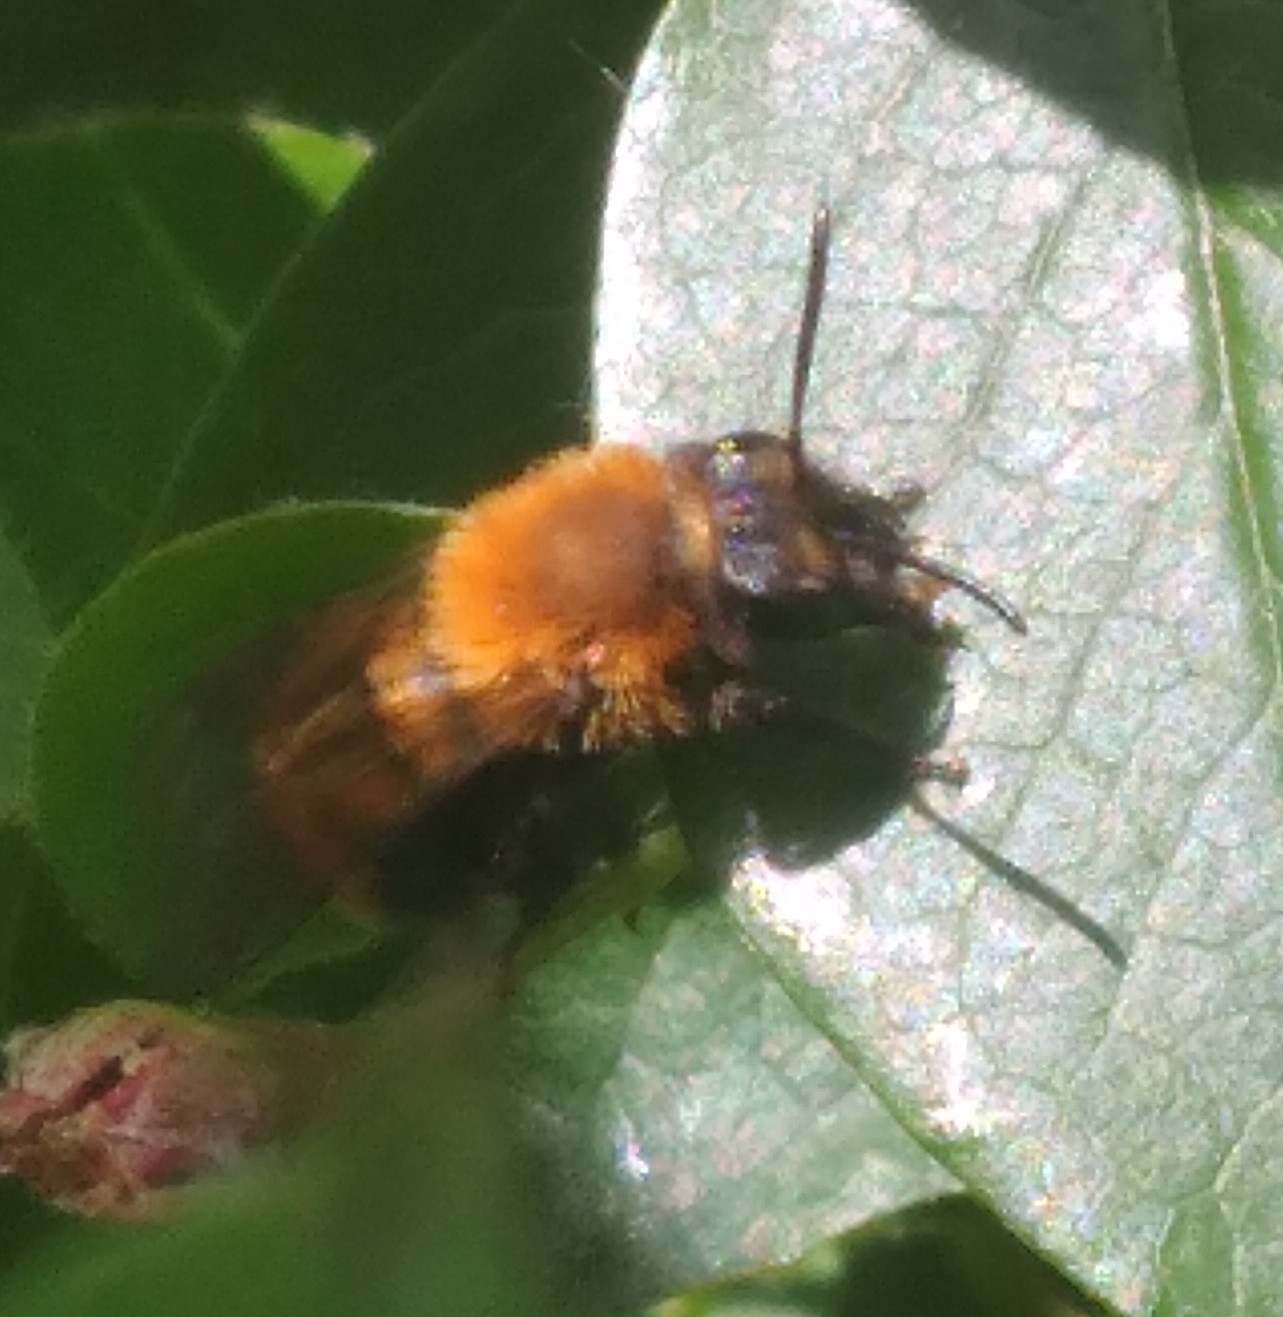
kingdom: Animalia
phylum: Arthropoda
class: Insecta
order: Hymenoptera
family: Andrenidae
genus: Andrena
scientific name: Andrena milwaukeensis
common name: Milwaukee mining bee
